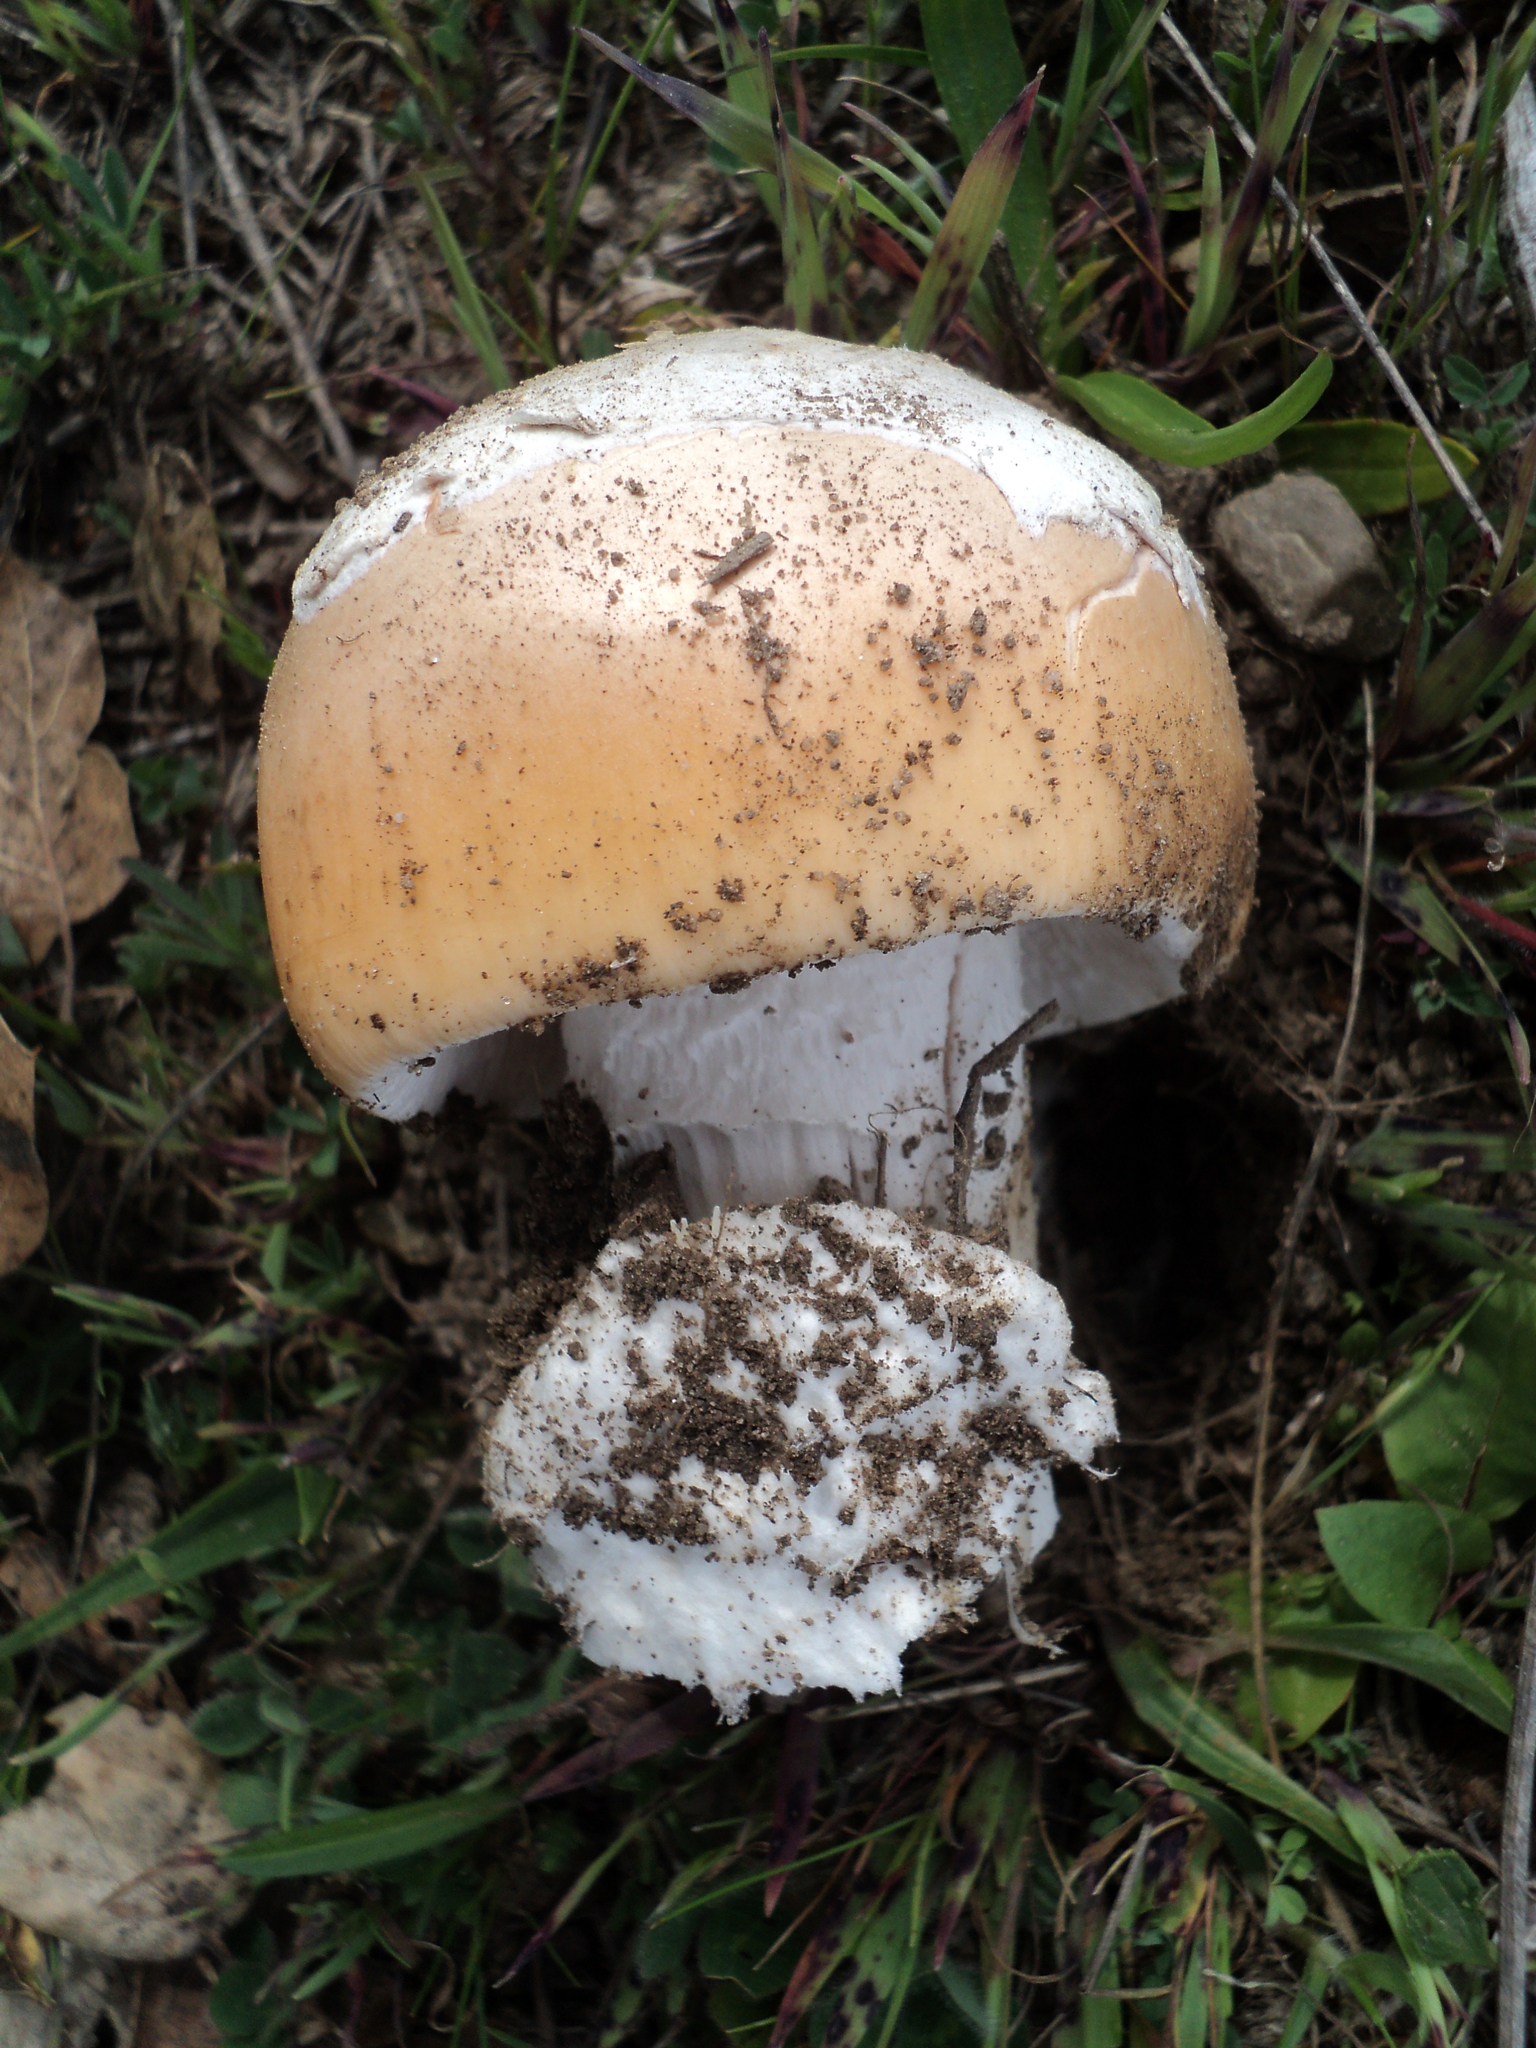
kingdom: Fungi
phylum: Basidiomycota
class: Agaricomycetes
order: Agaricales
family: Amanitaceae
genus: Amanita
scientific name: Amanita velosa
